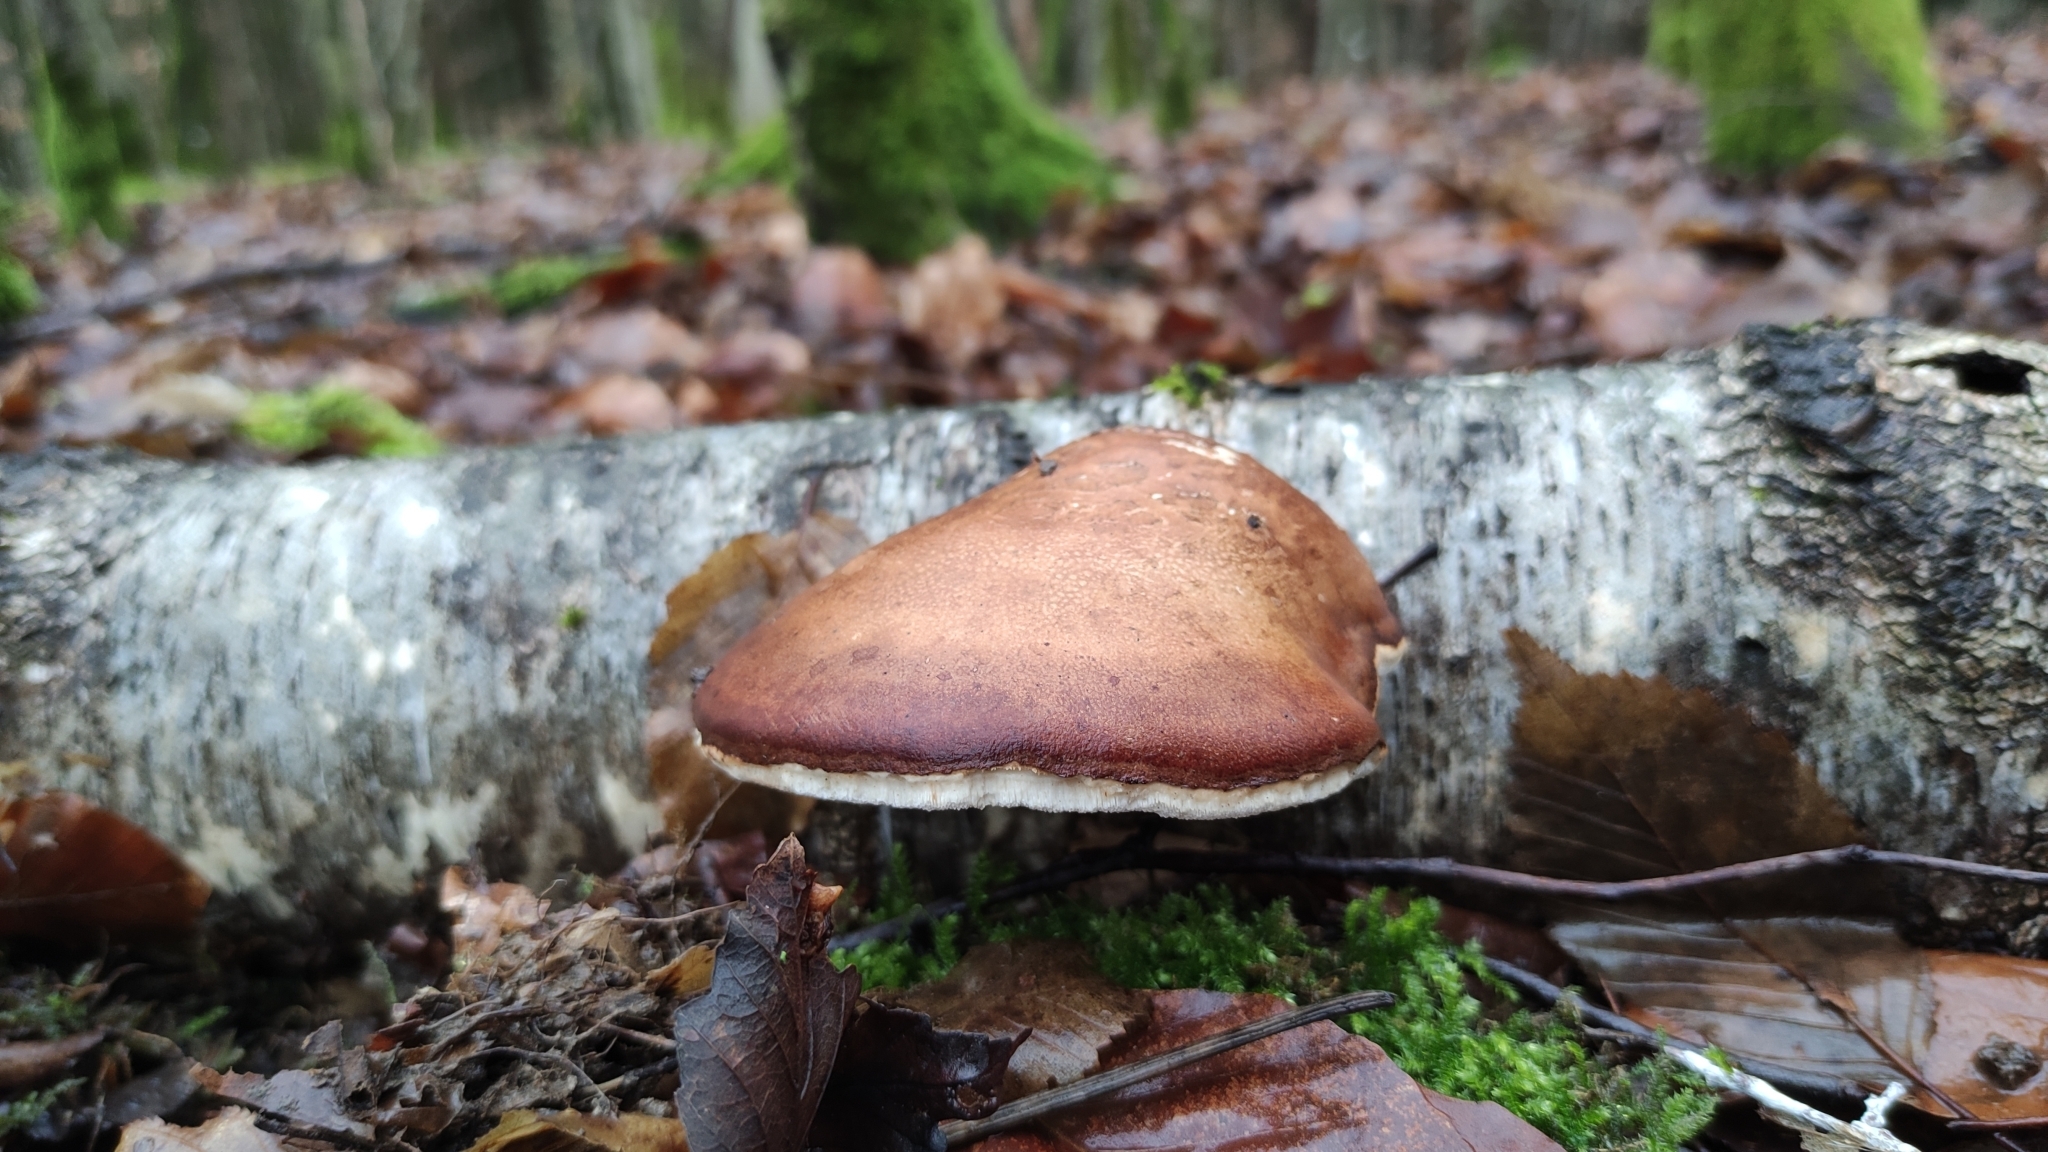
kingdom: Fungi
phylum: Basidiomycota
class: Agaricomycetes
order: Polyporales
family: Fomitopsidaceae
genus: Fomitopsis
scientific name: Fomitopsis betulina
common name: Birch polypore
